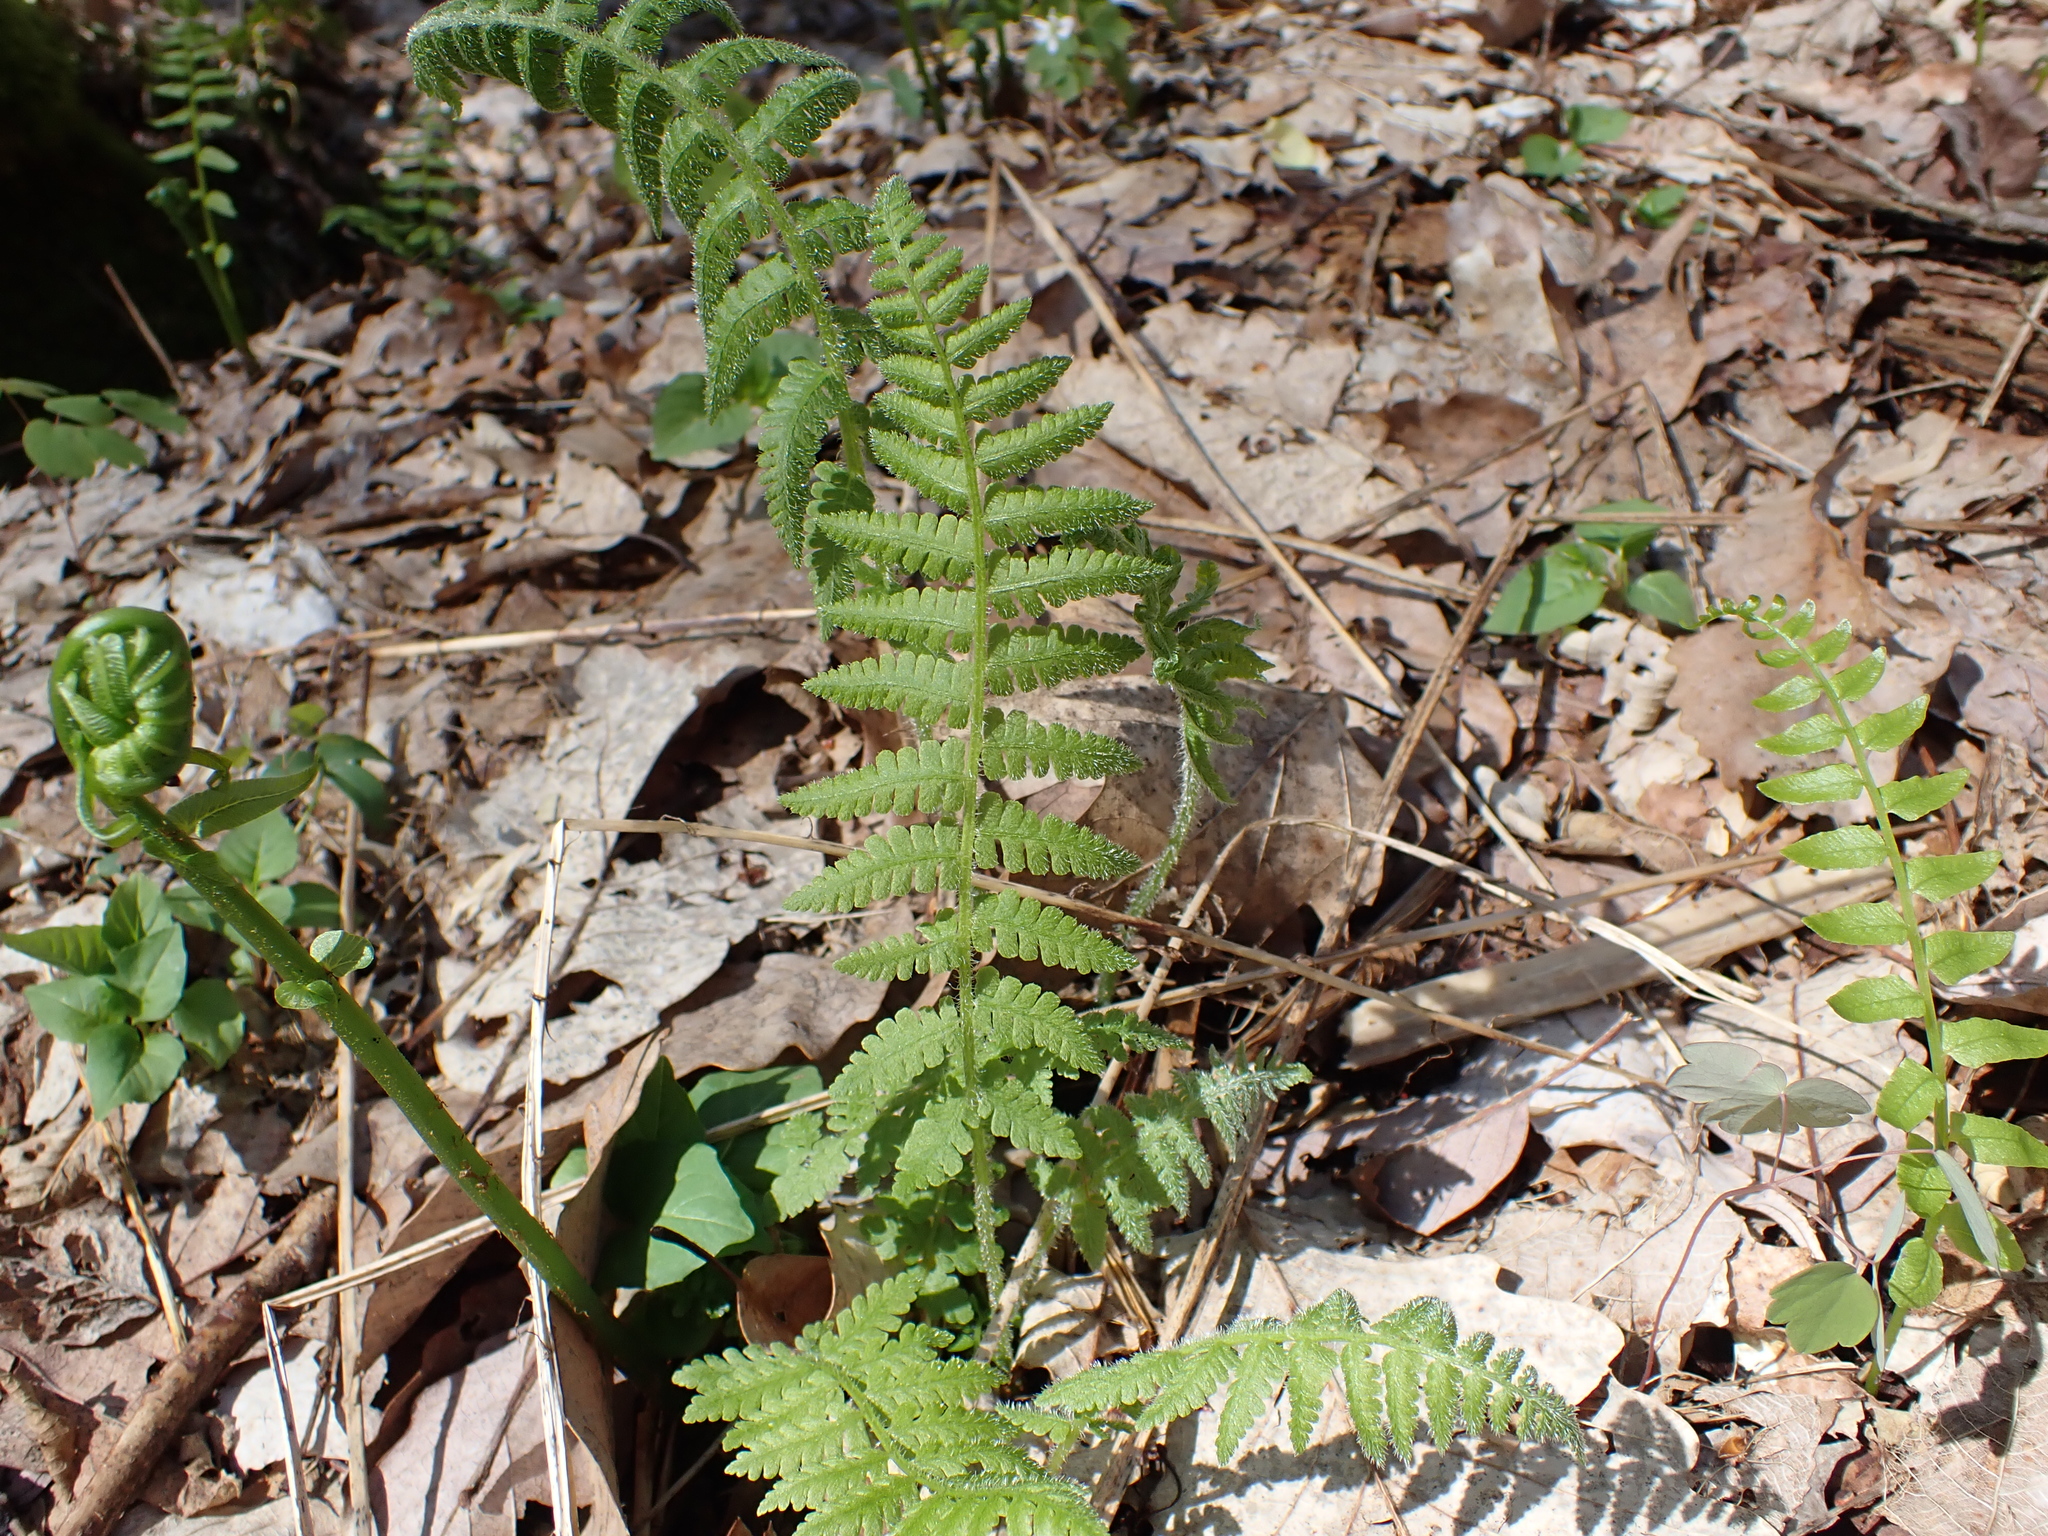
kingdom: Plantae
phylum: Tracheophyta
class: Polypodiopsida
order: Polypodiales
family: Athyriaceae
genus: Deparia
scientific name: Deparia acrostichoides
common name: Silver false spleenwort
